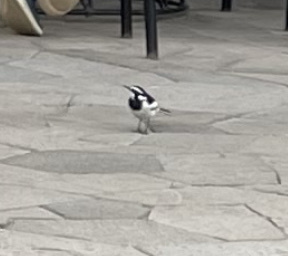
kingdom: Animalia
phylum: Chordata
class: Aves
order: Passeriformes
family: Motacillidae
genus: Motacilla
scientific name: Motacilla aguimp
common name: African pied wagtail
